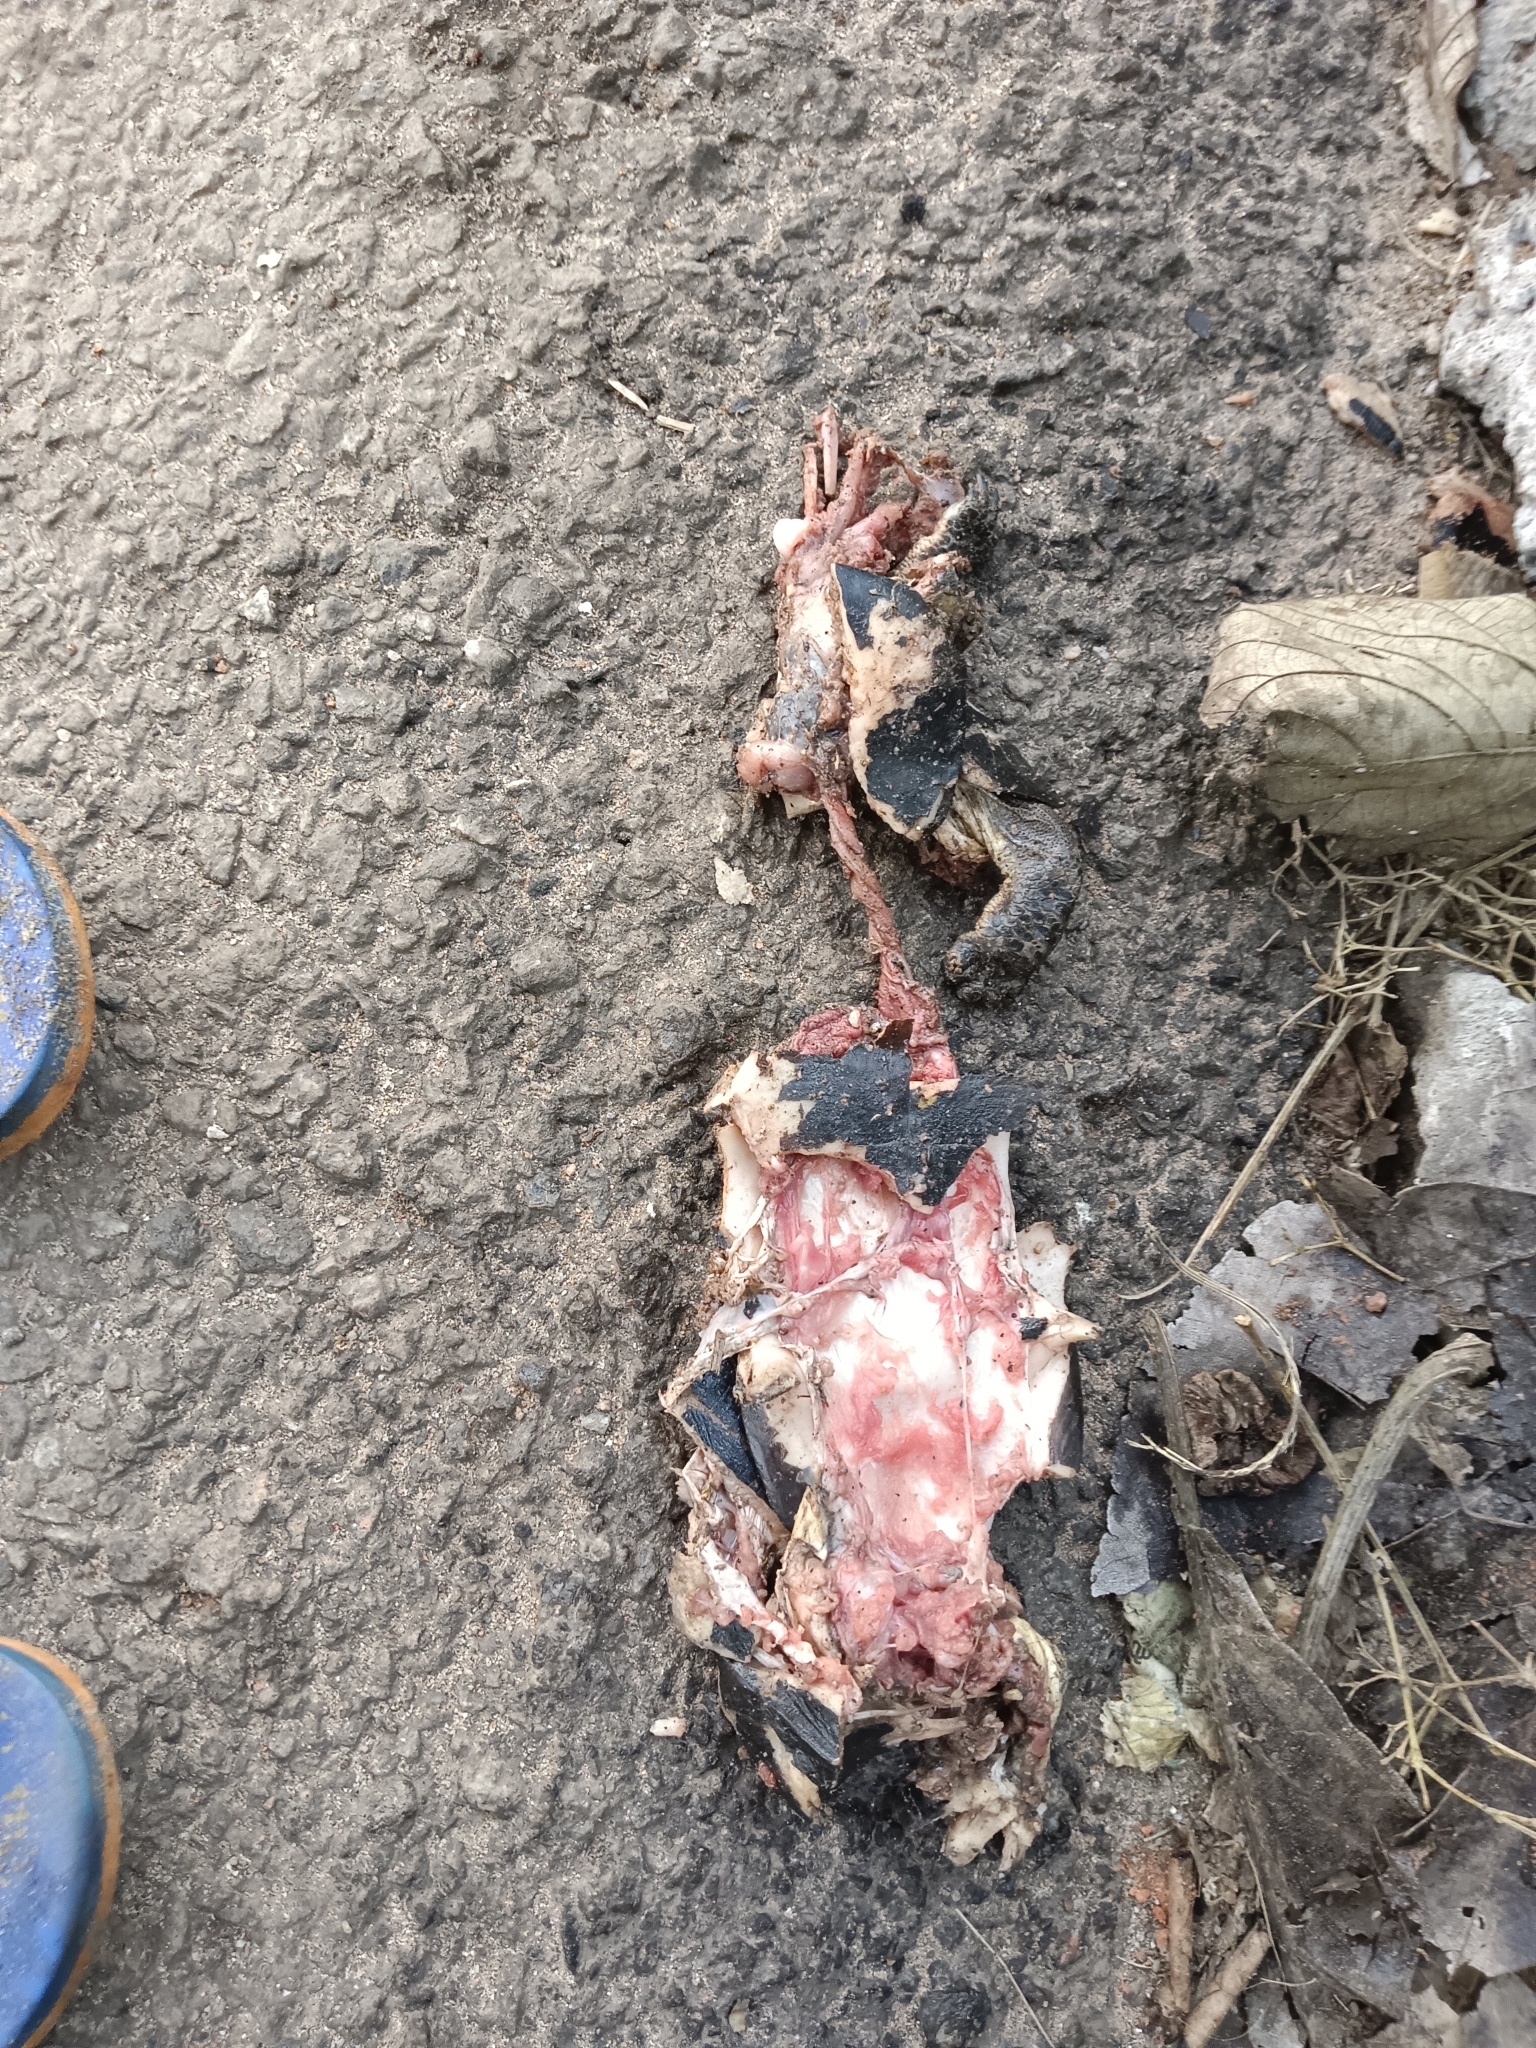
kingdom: Animalia
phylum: Chordata
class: Testudines
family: Geoemydidae
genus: Melanochelys
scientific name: Melanochelys trijuga
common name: Indian black turtle
